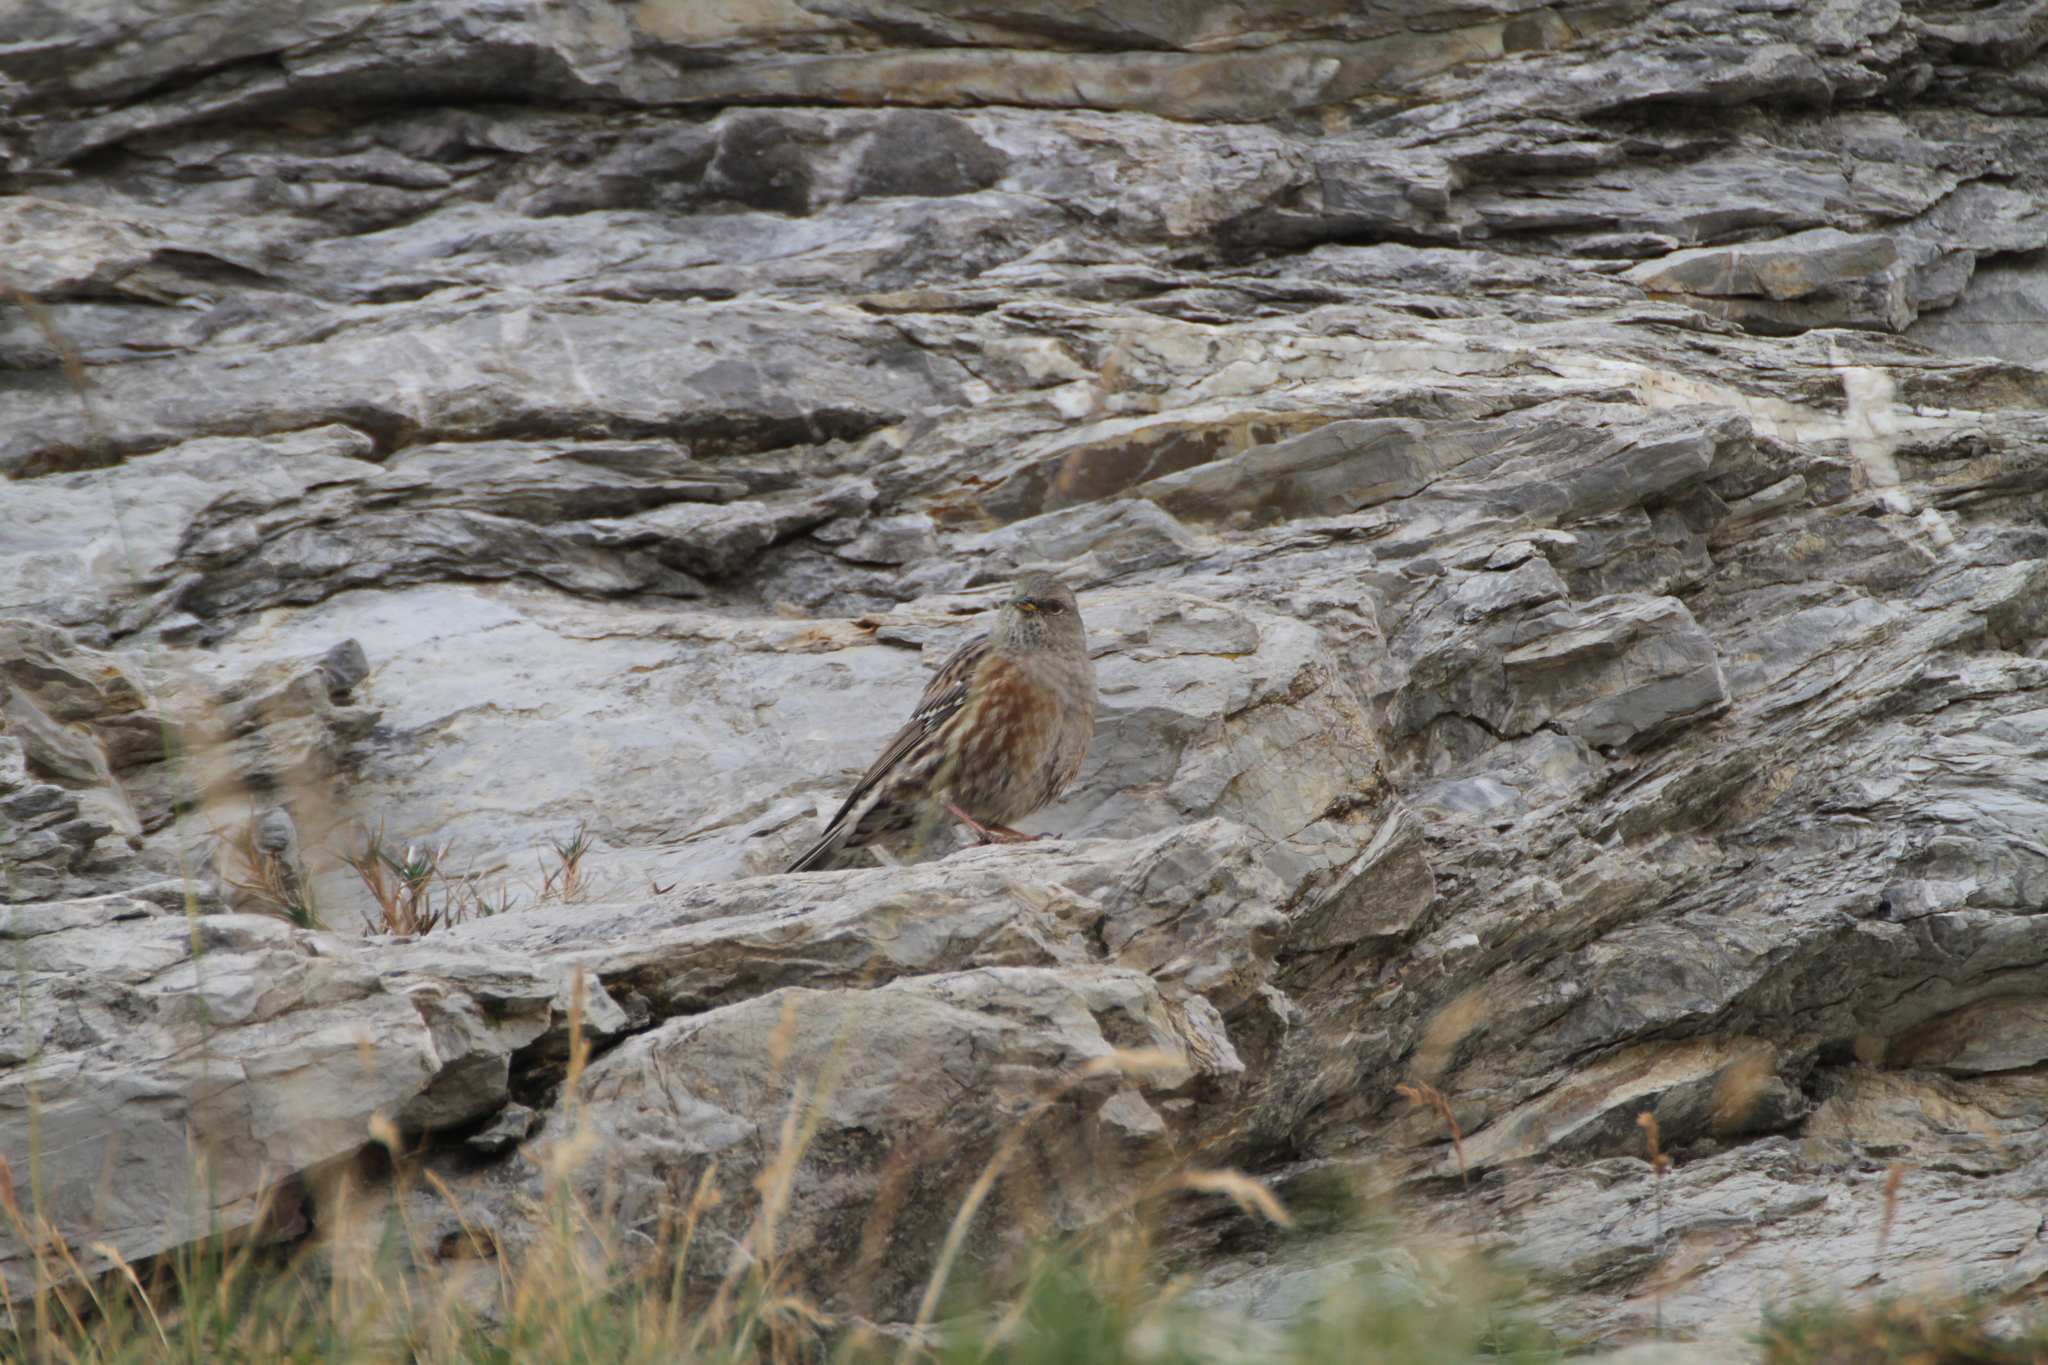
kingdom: Animalia
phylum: Chordata
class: Aves
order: Passeriformes
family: Prunellidae
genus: Prunella
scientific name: Prunella collaris
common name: Alpine accentor
